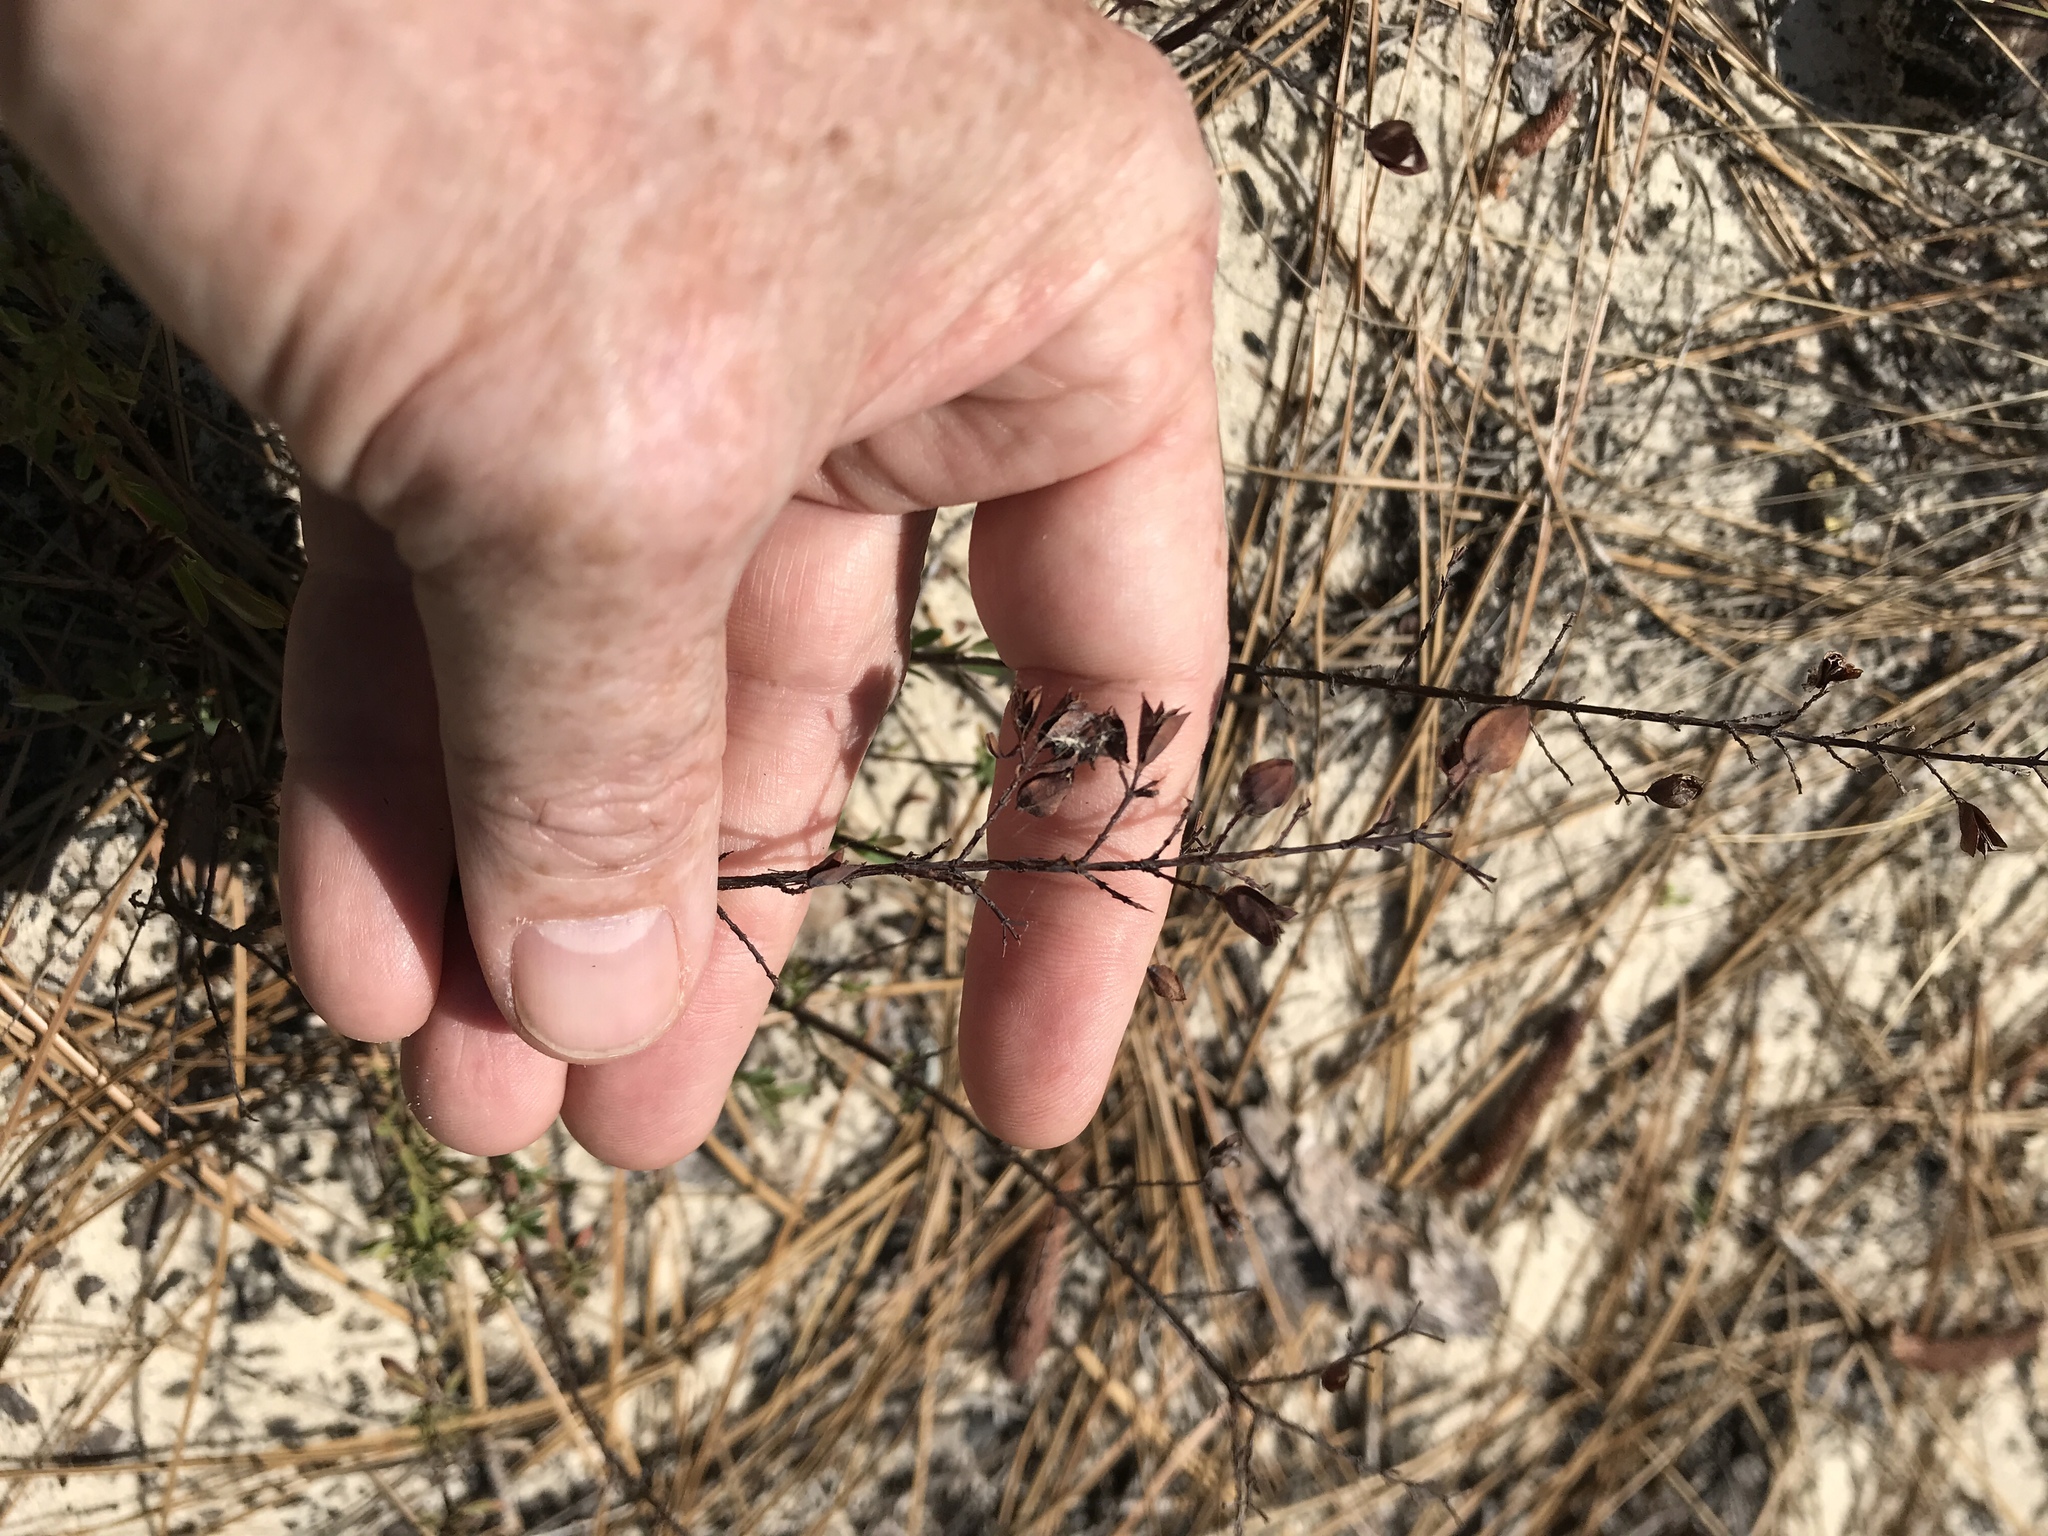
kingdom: Plantae
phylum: Tracheophyta
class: Magnoliopsida
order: Malpighiales
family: Hypericaceae
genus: Hypericum
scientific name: Hypericum hypericoides
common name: St. andrew's cross
